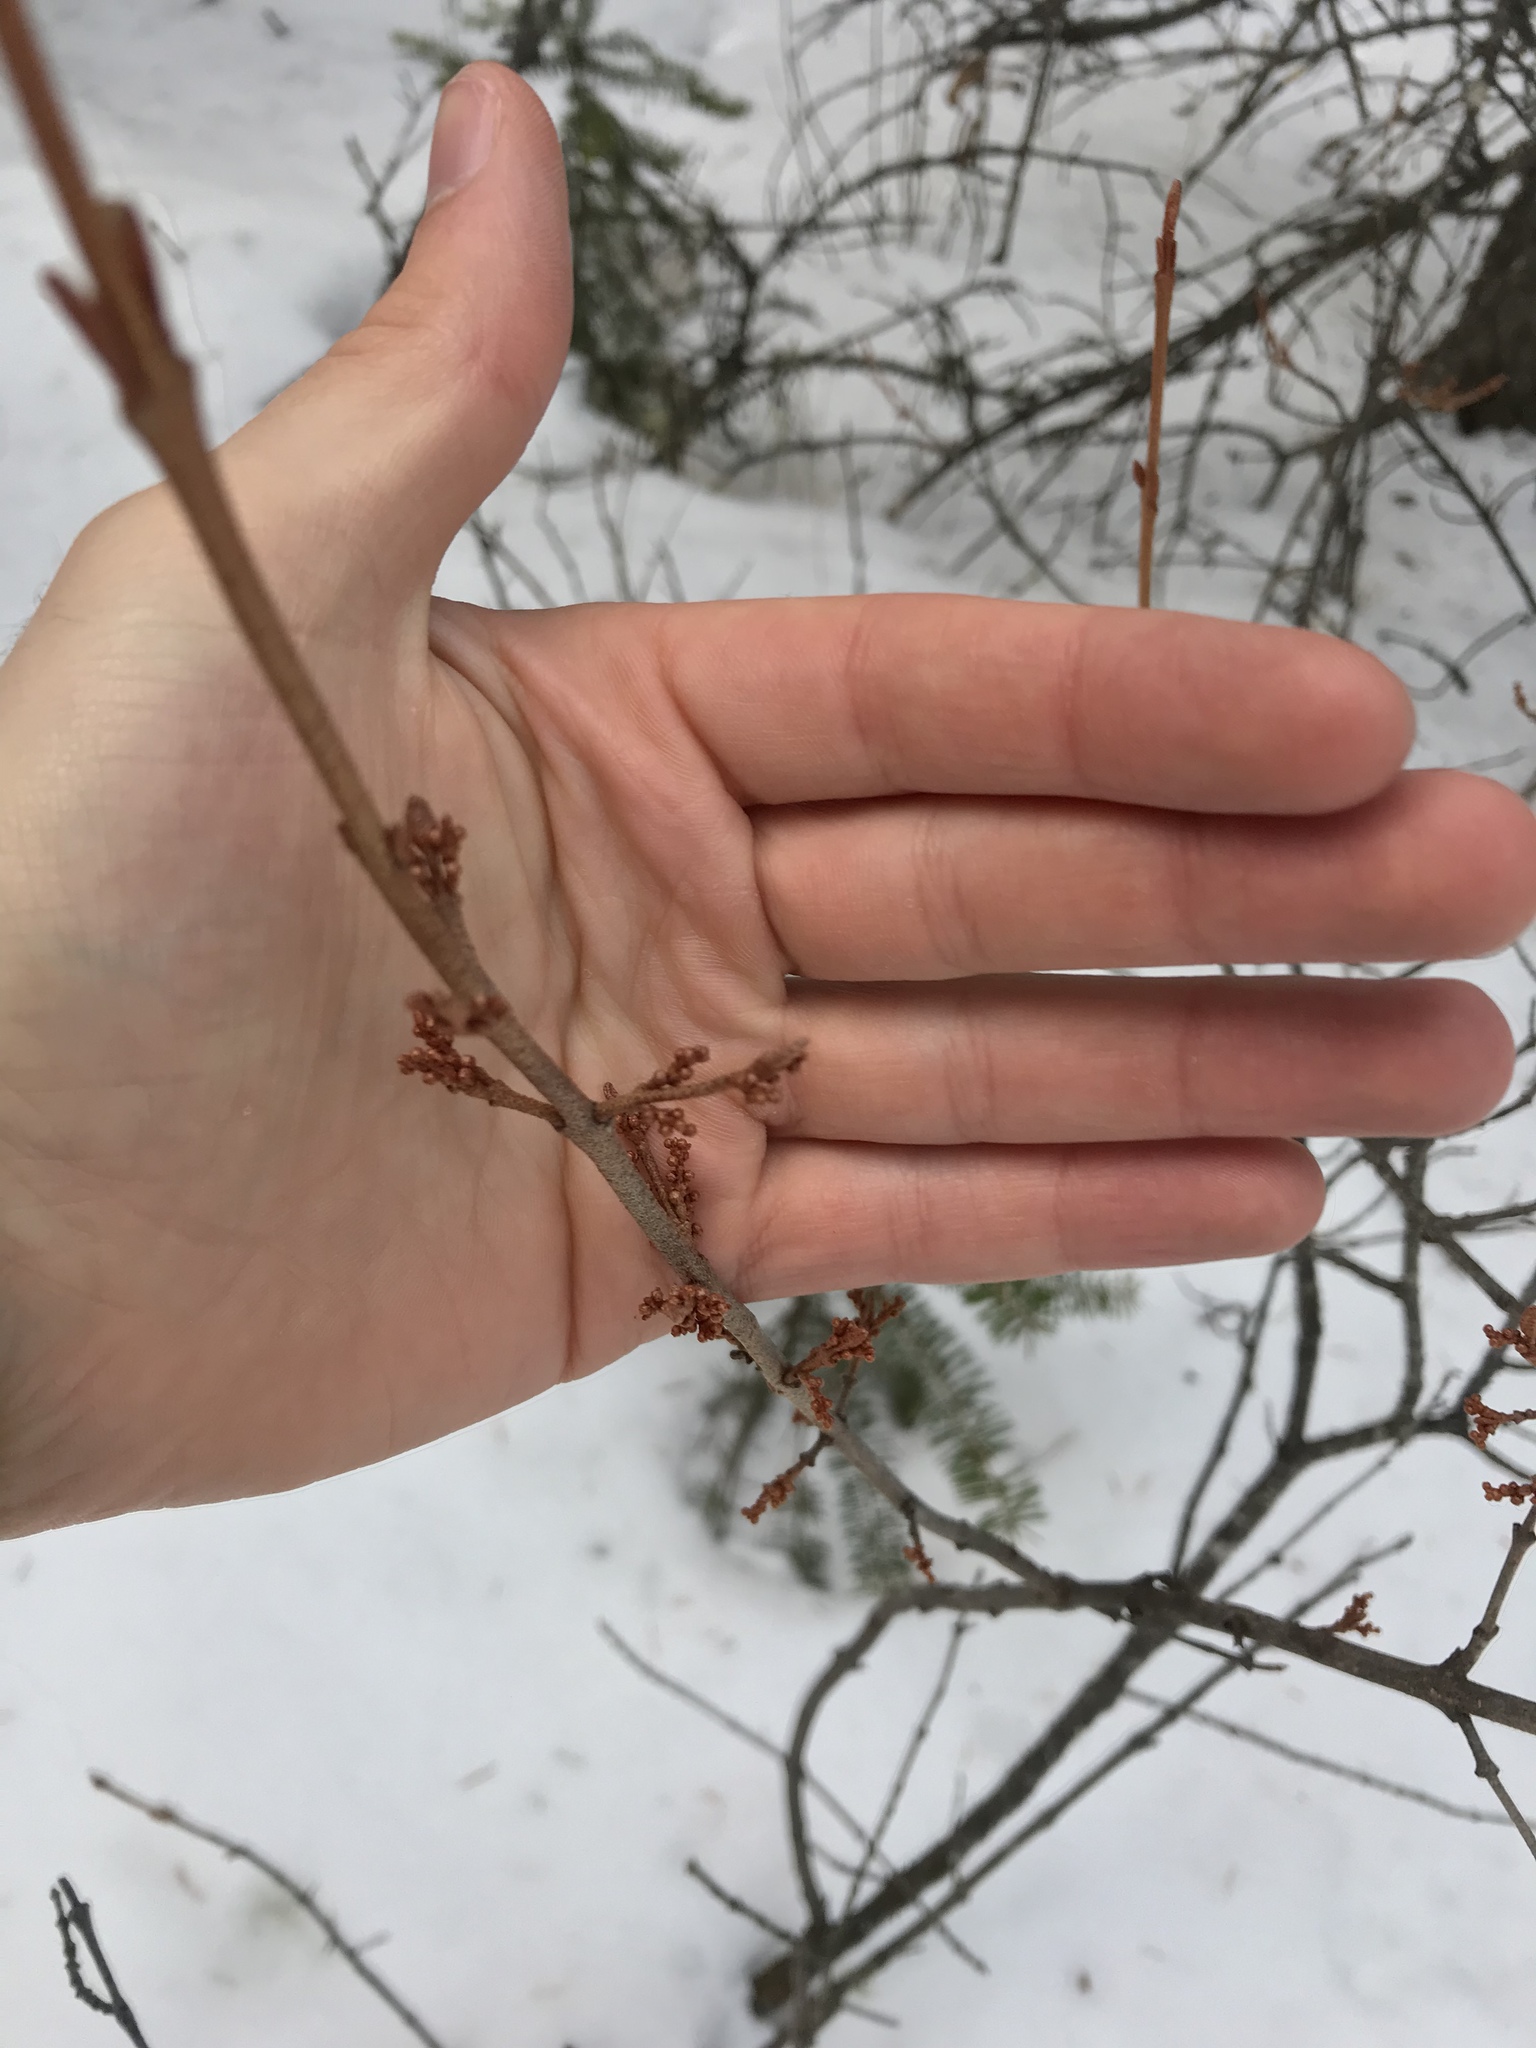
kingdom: Plantae
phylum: Tracheophyta
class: Magnoliopsida
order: Rosales
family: Elaeagnaceae
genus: Shepherdia
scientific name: Shepherdia canadensis
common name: Soapberry
